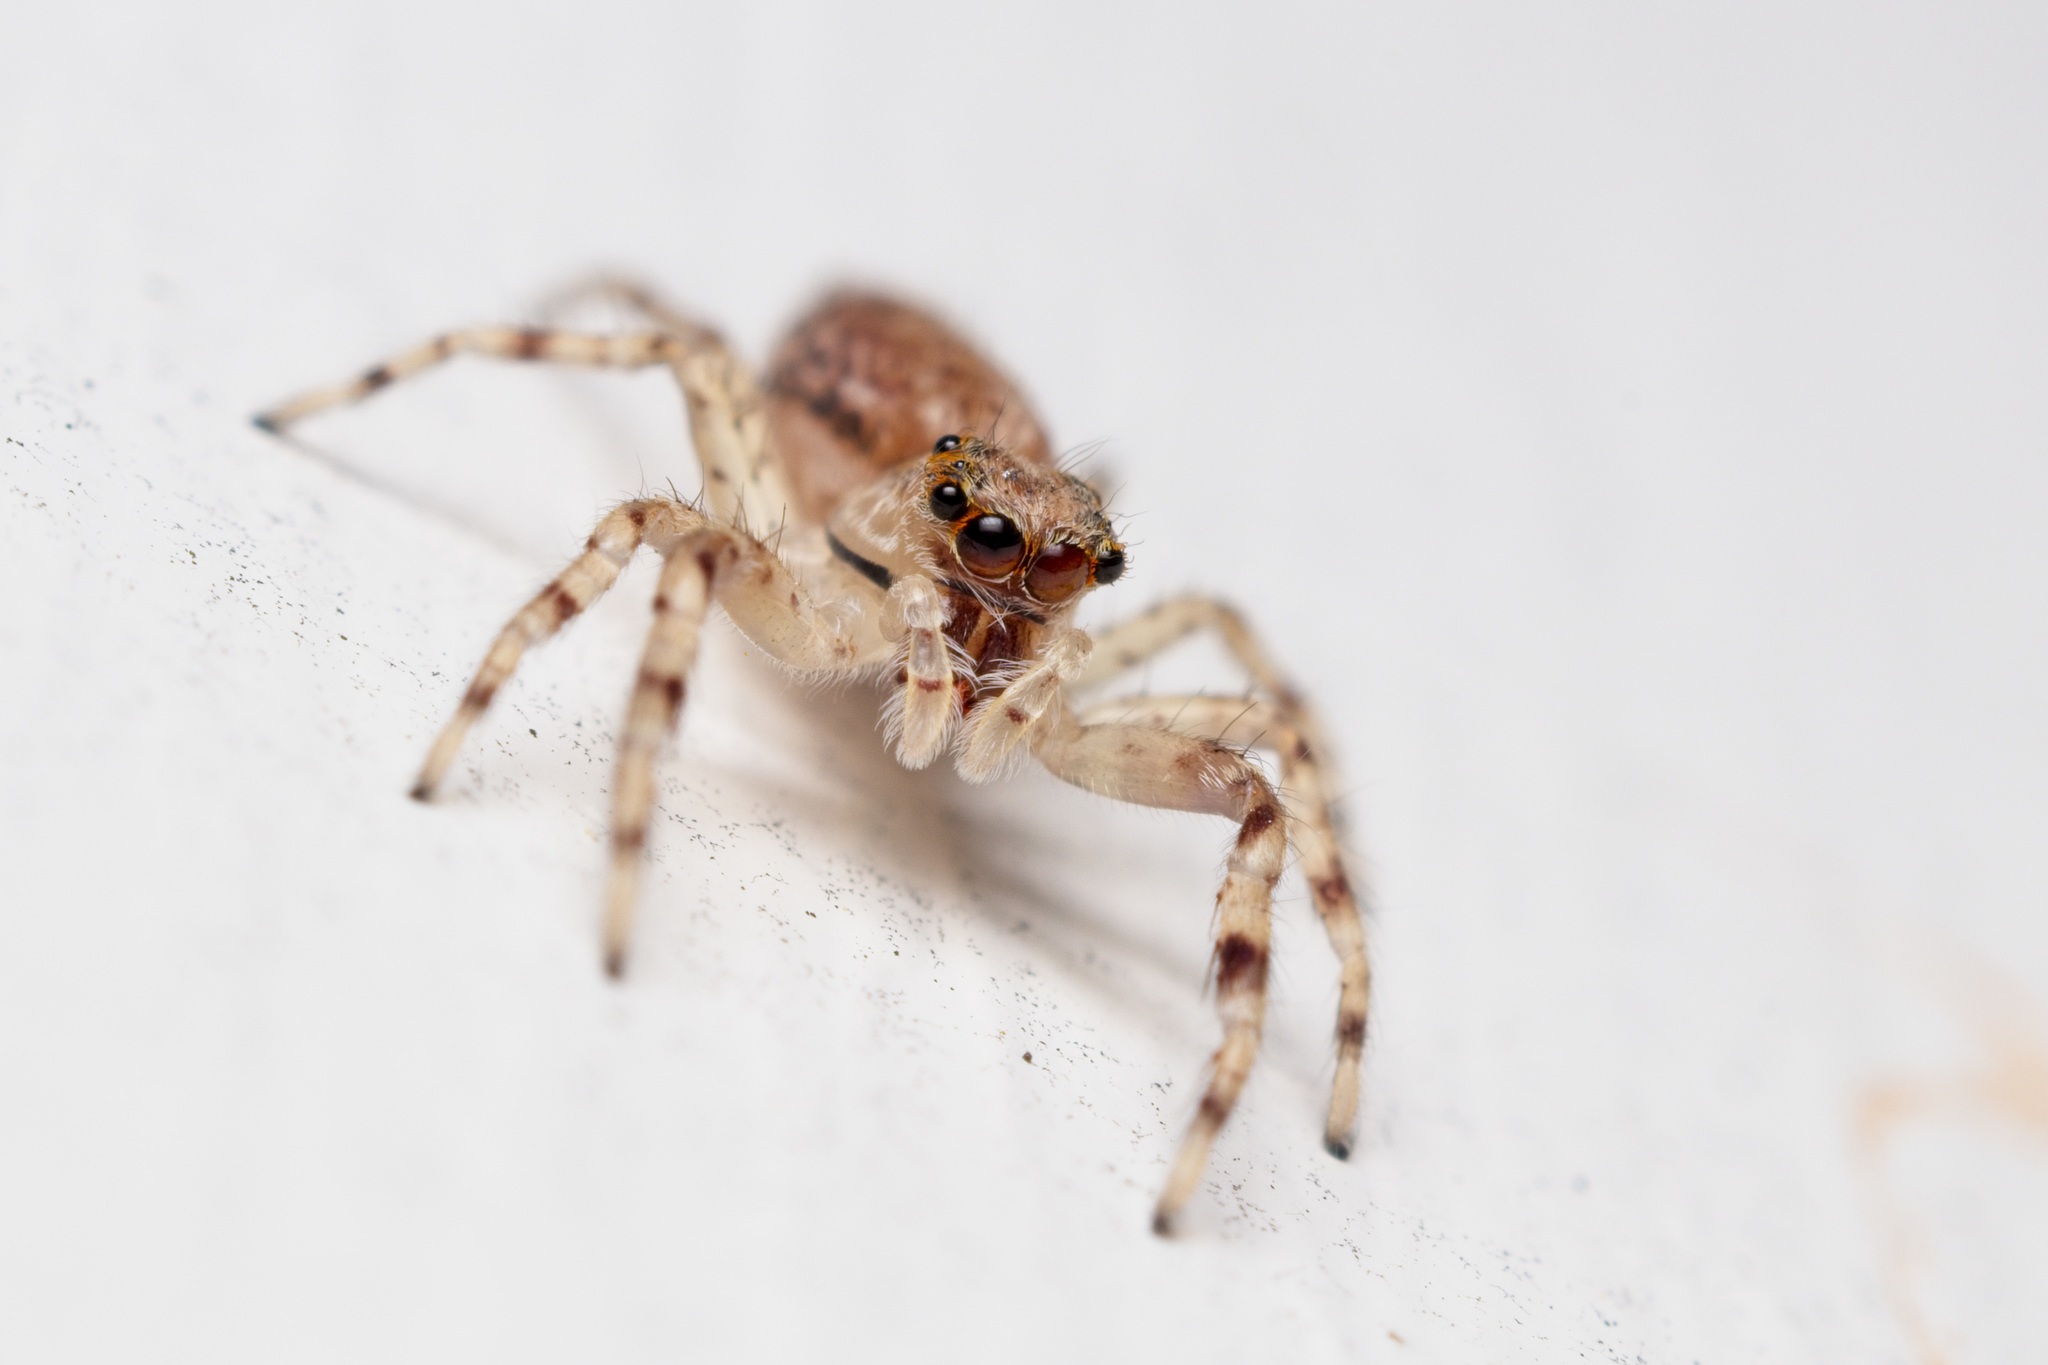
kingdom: Animalia
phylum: Arthropoda
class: Arachnida
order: Araneae
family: Salticidae
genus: Helpis
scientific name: Helpis minitabunda
